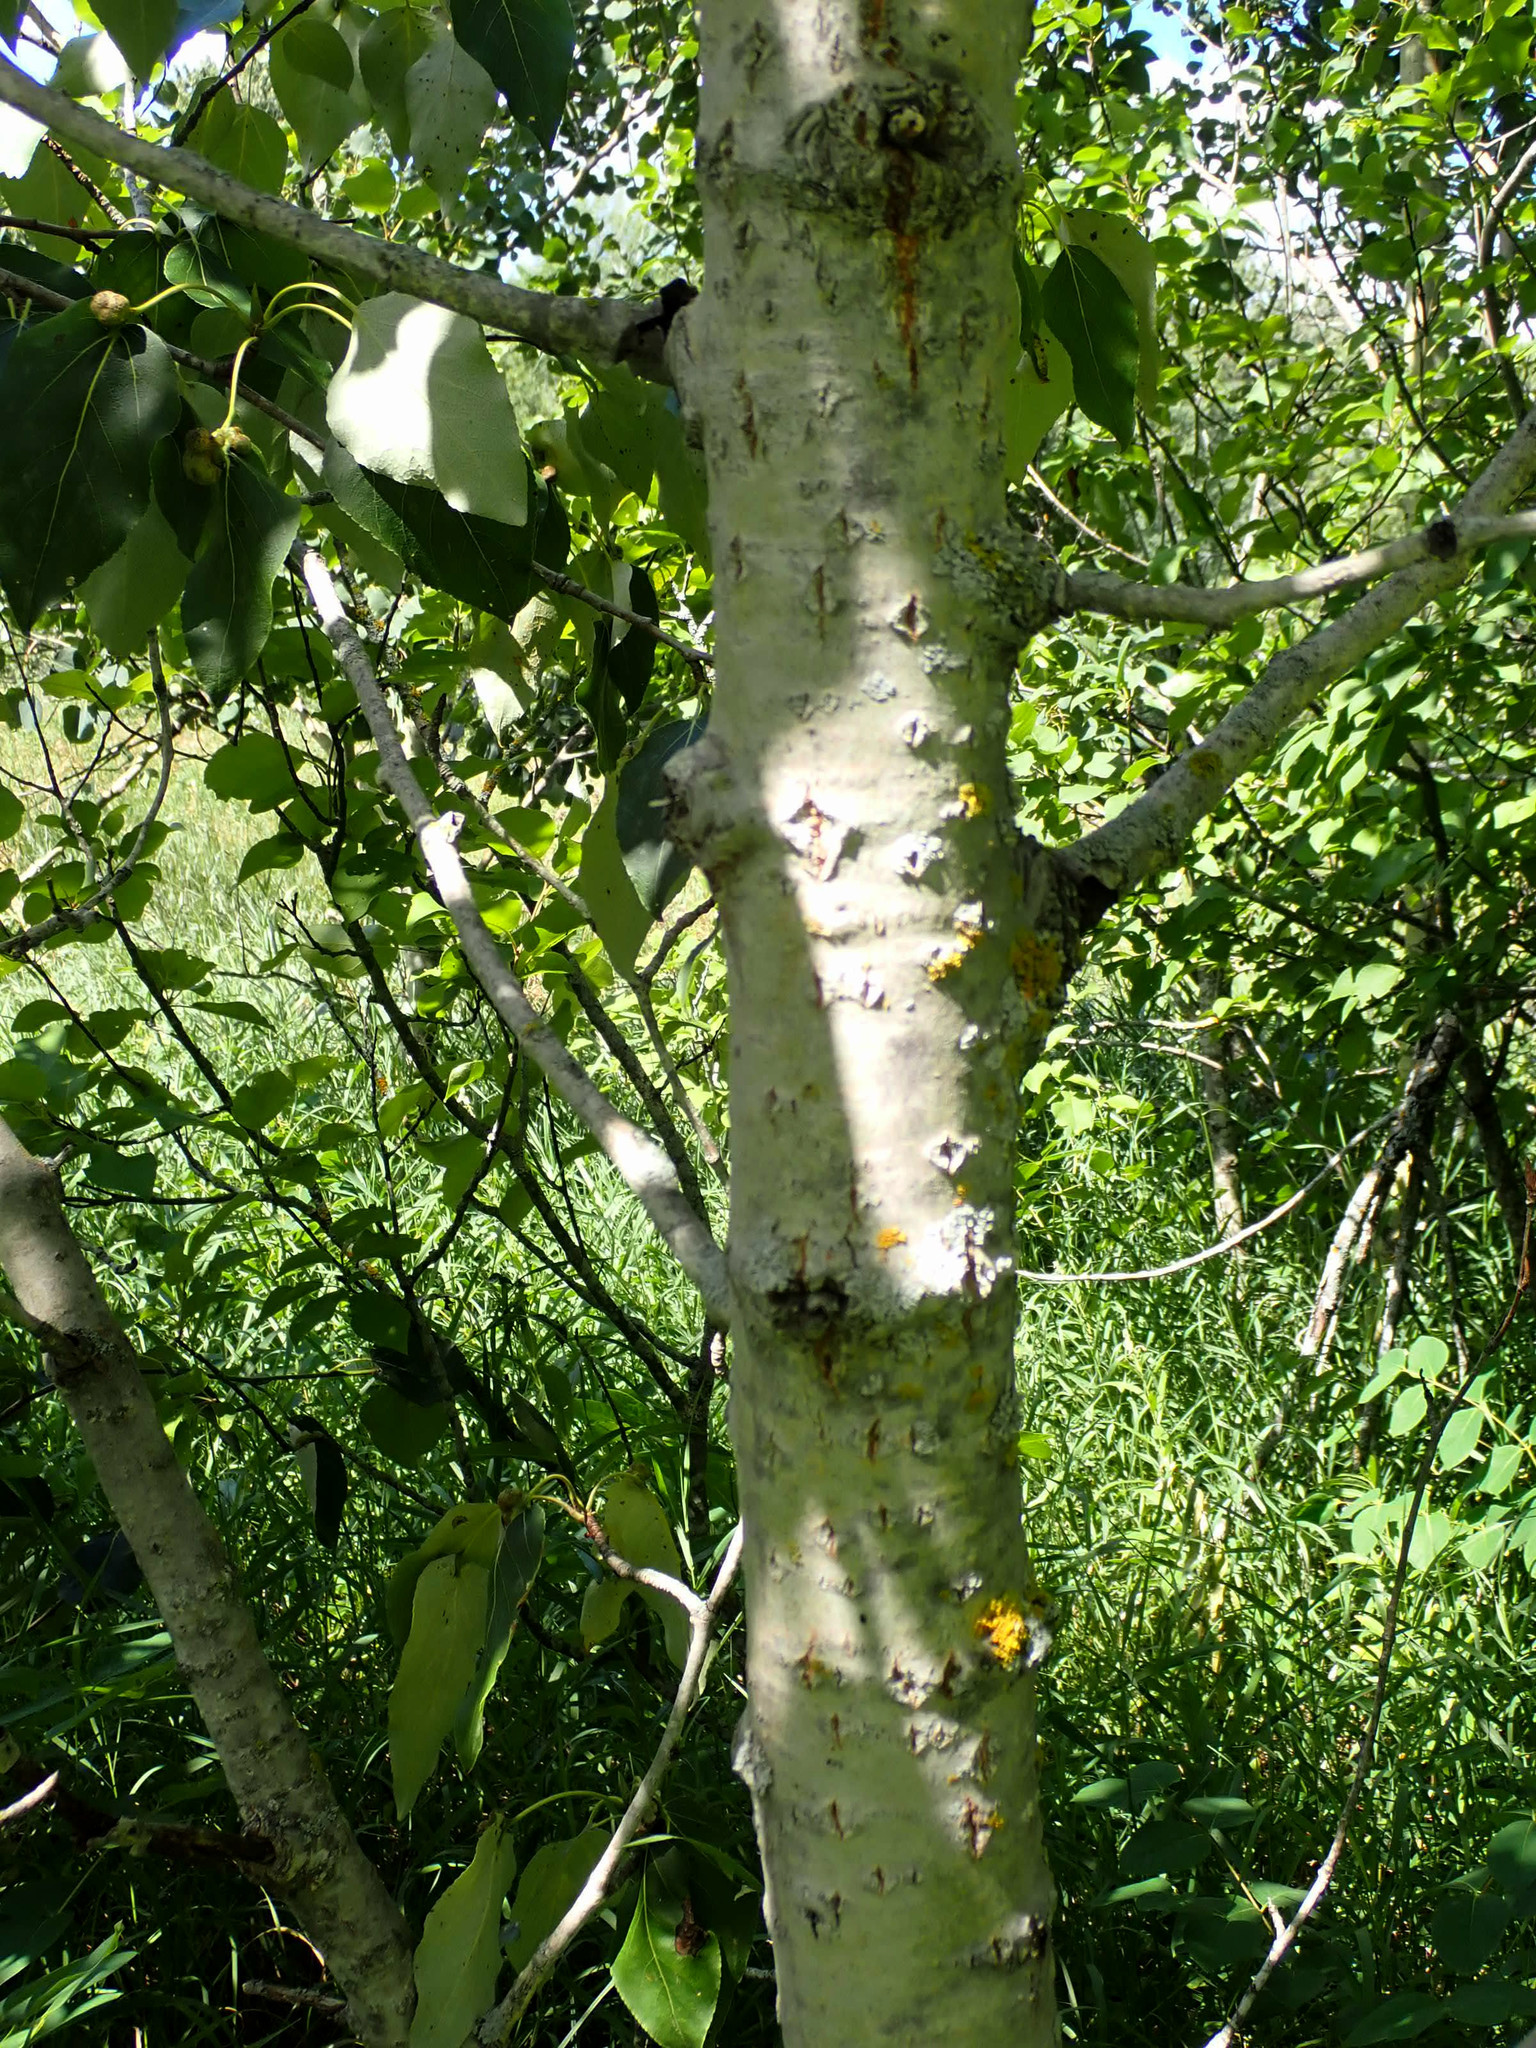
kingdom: Plantae
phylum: Tracheophyta
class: Magnoliopsida
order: Malpighiales
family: Salicaceae
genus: Populus
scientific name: Populus balsamifera
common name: Balsam poplar
